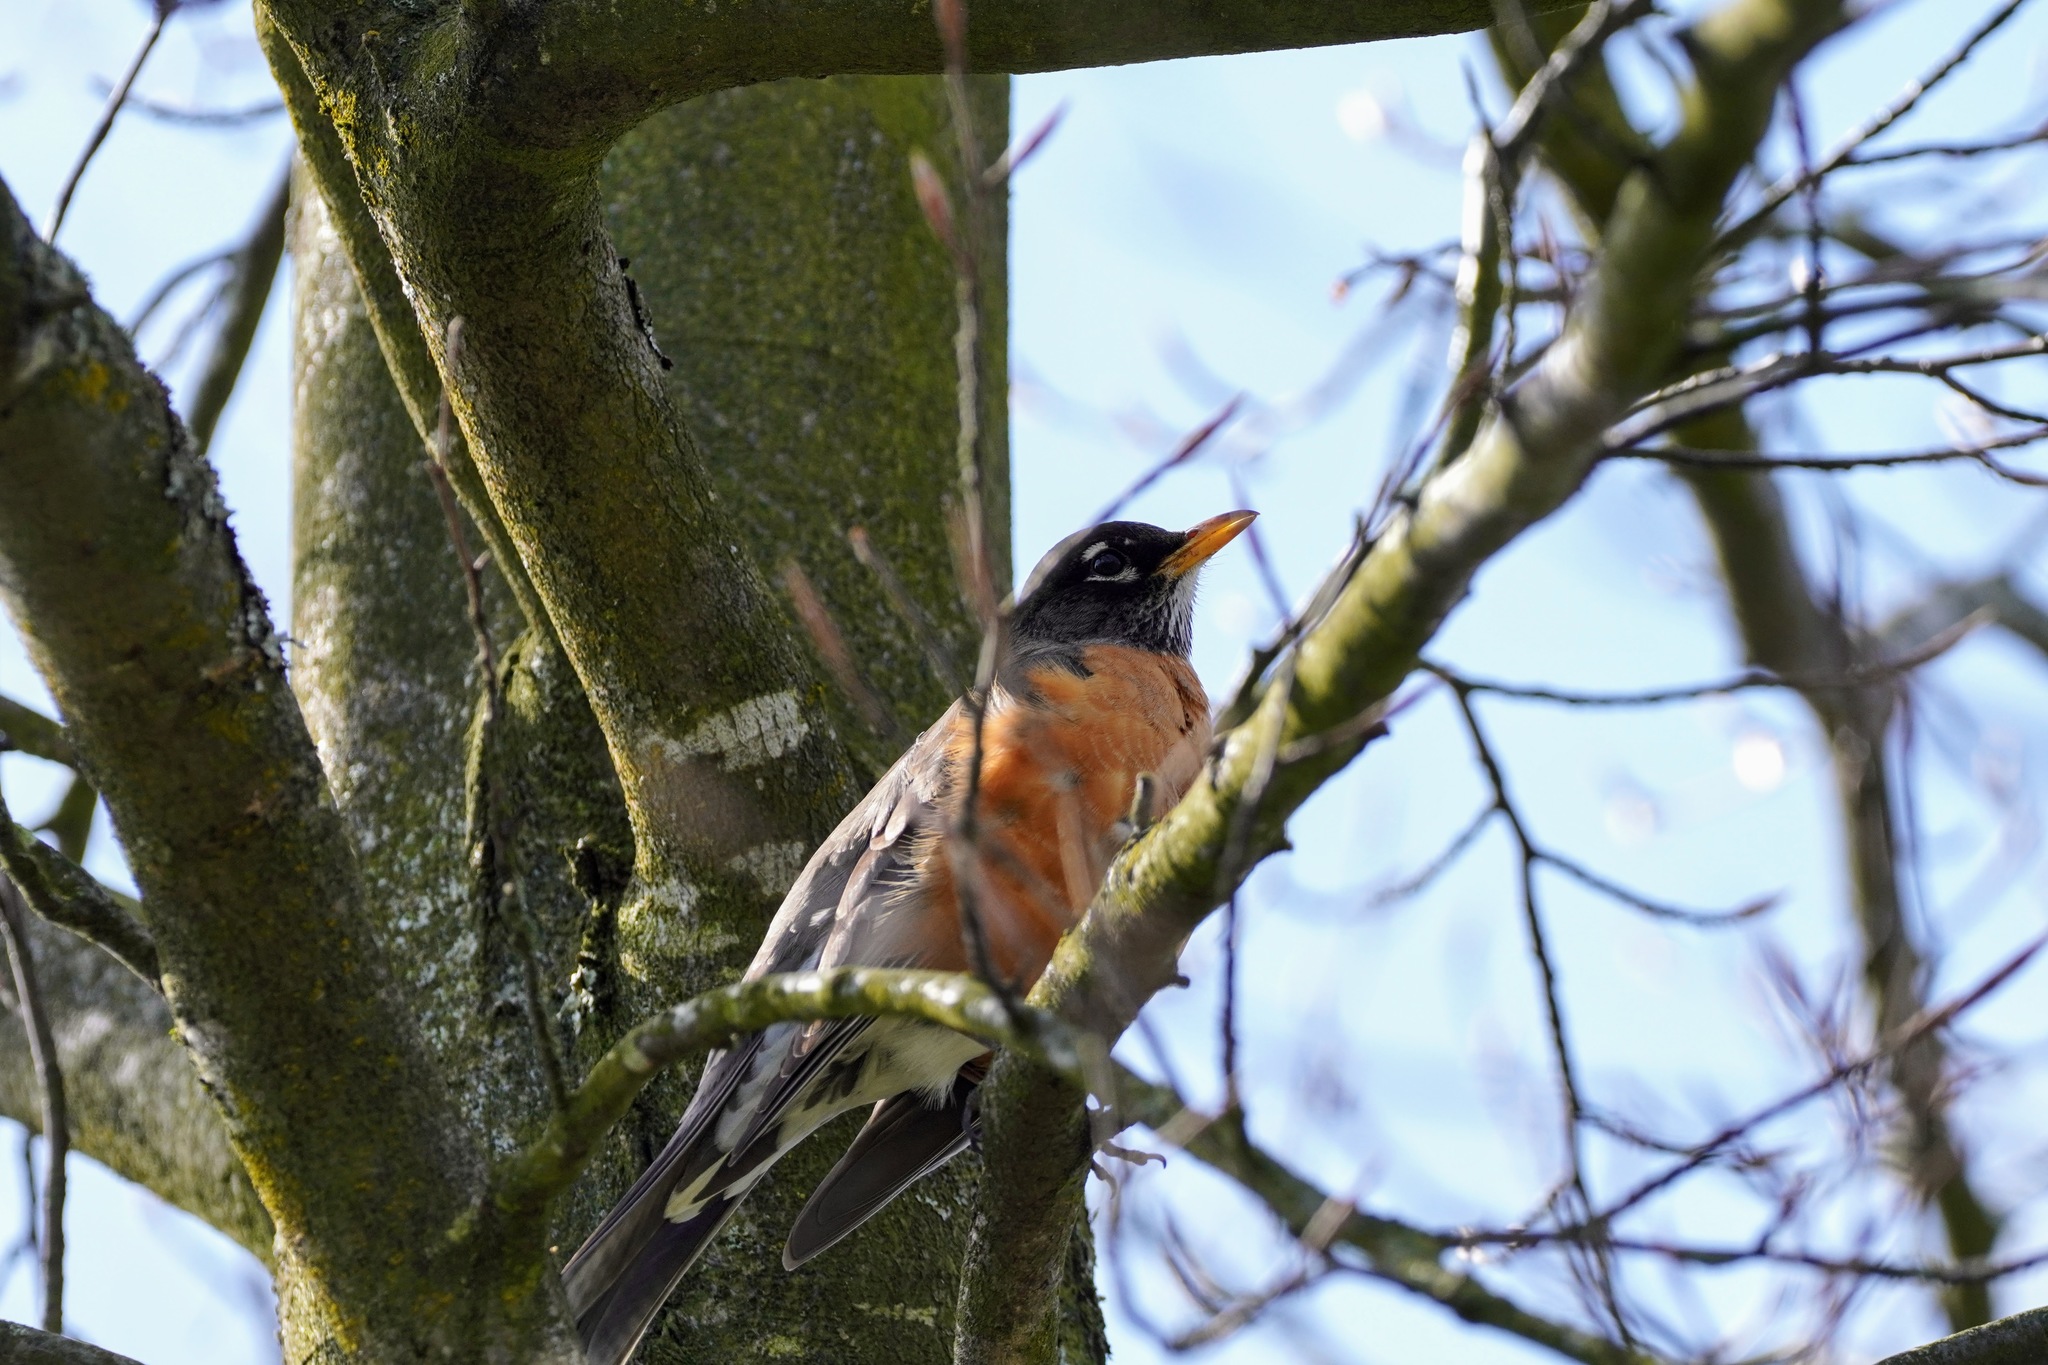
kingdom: Animalia
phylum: Chordata
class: Aves
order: Passeriformes
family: Turdidae
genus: Turdus
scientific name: Turdus migratorius
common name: American robin
